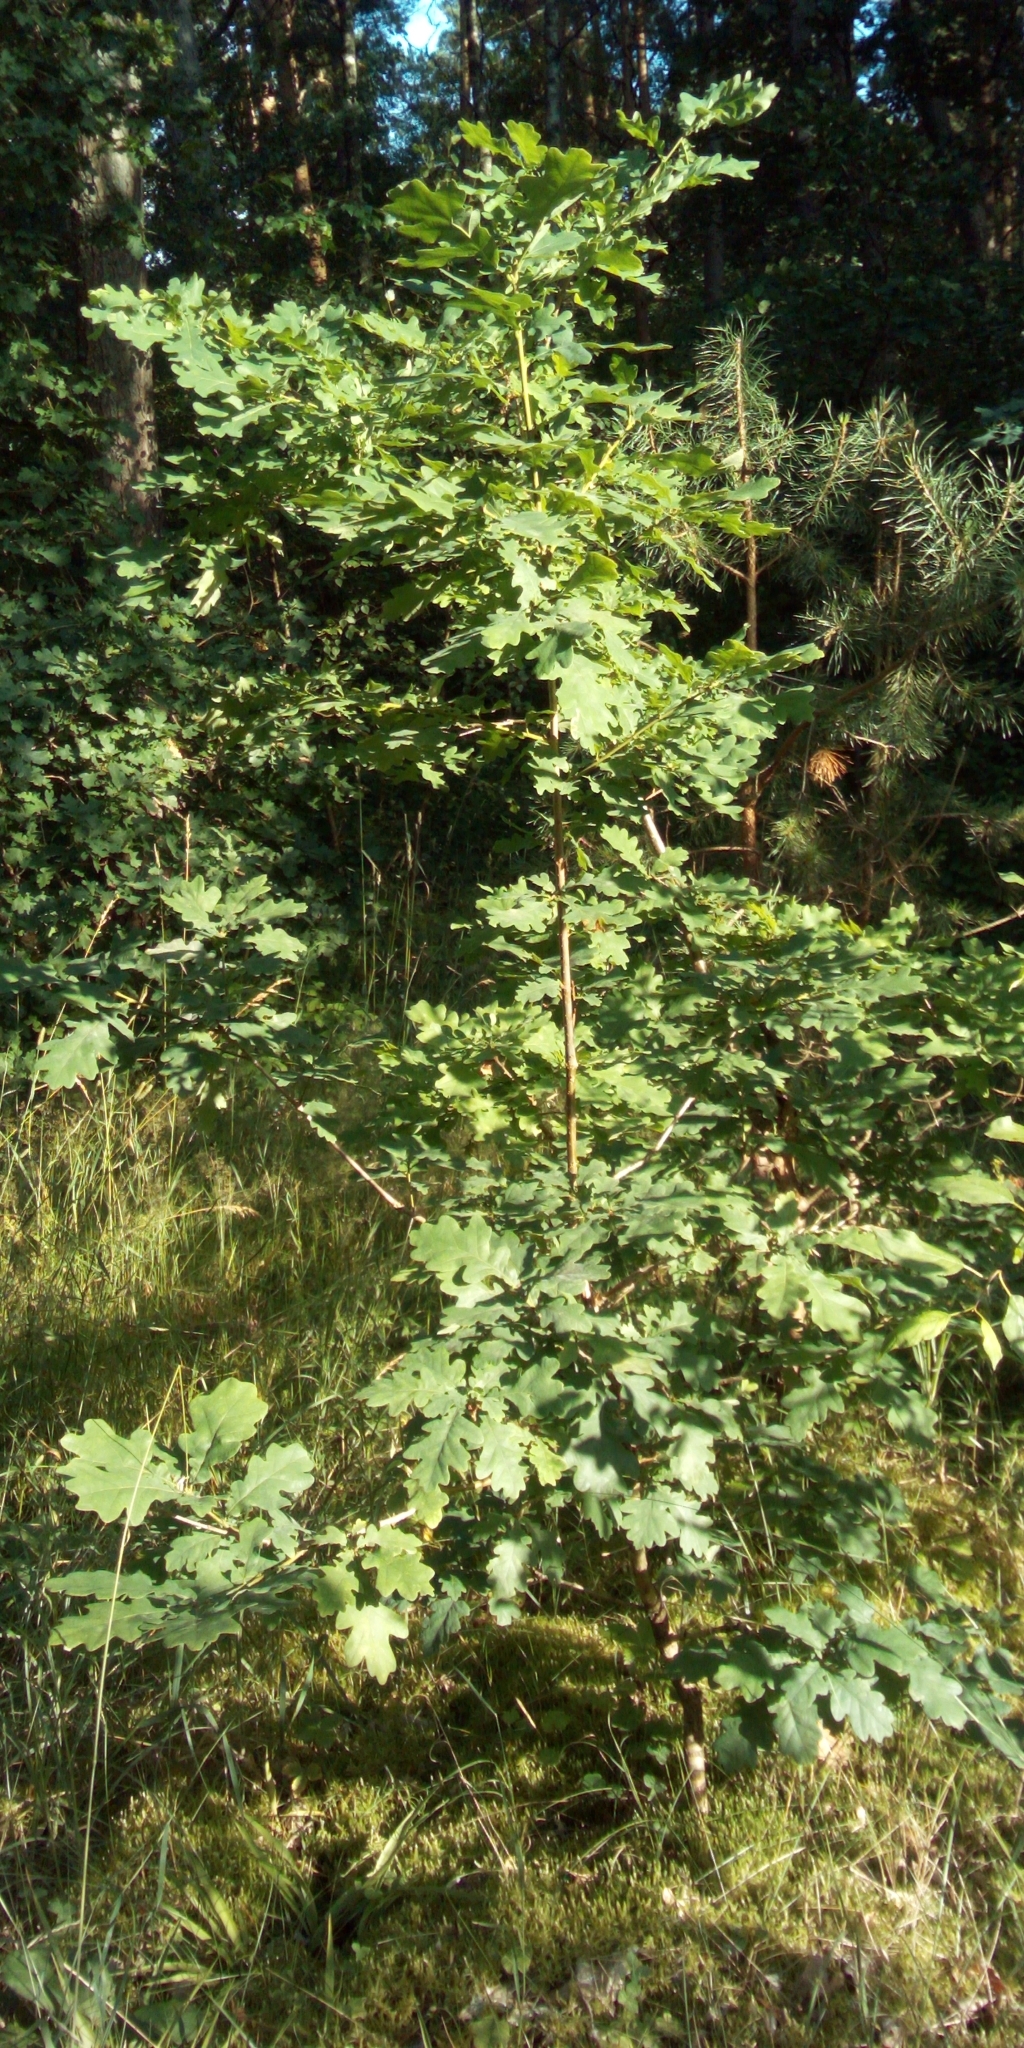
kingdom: Plantae
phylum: Tracheophyta
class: Magnoliopsida
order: Fagales
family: Fagaceae
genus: Quercus
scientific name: Quercus robur
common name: Pedunculate oak
